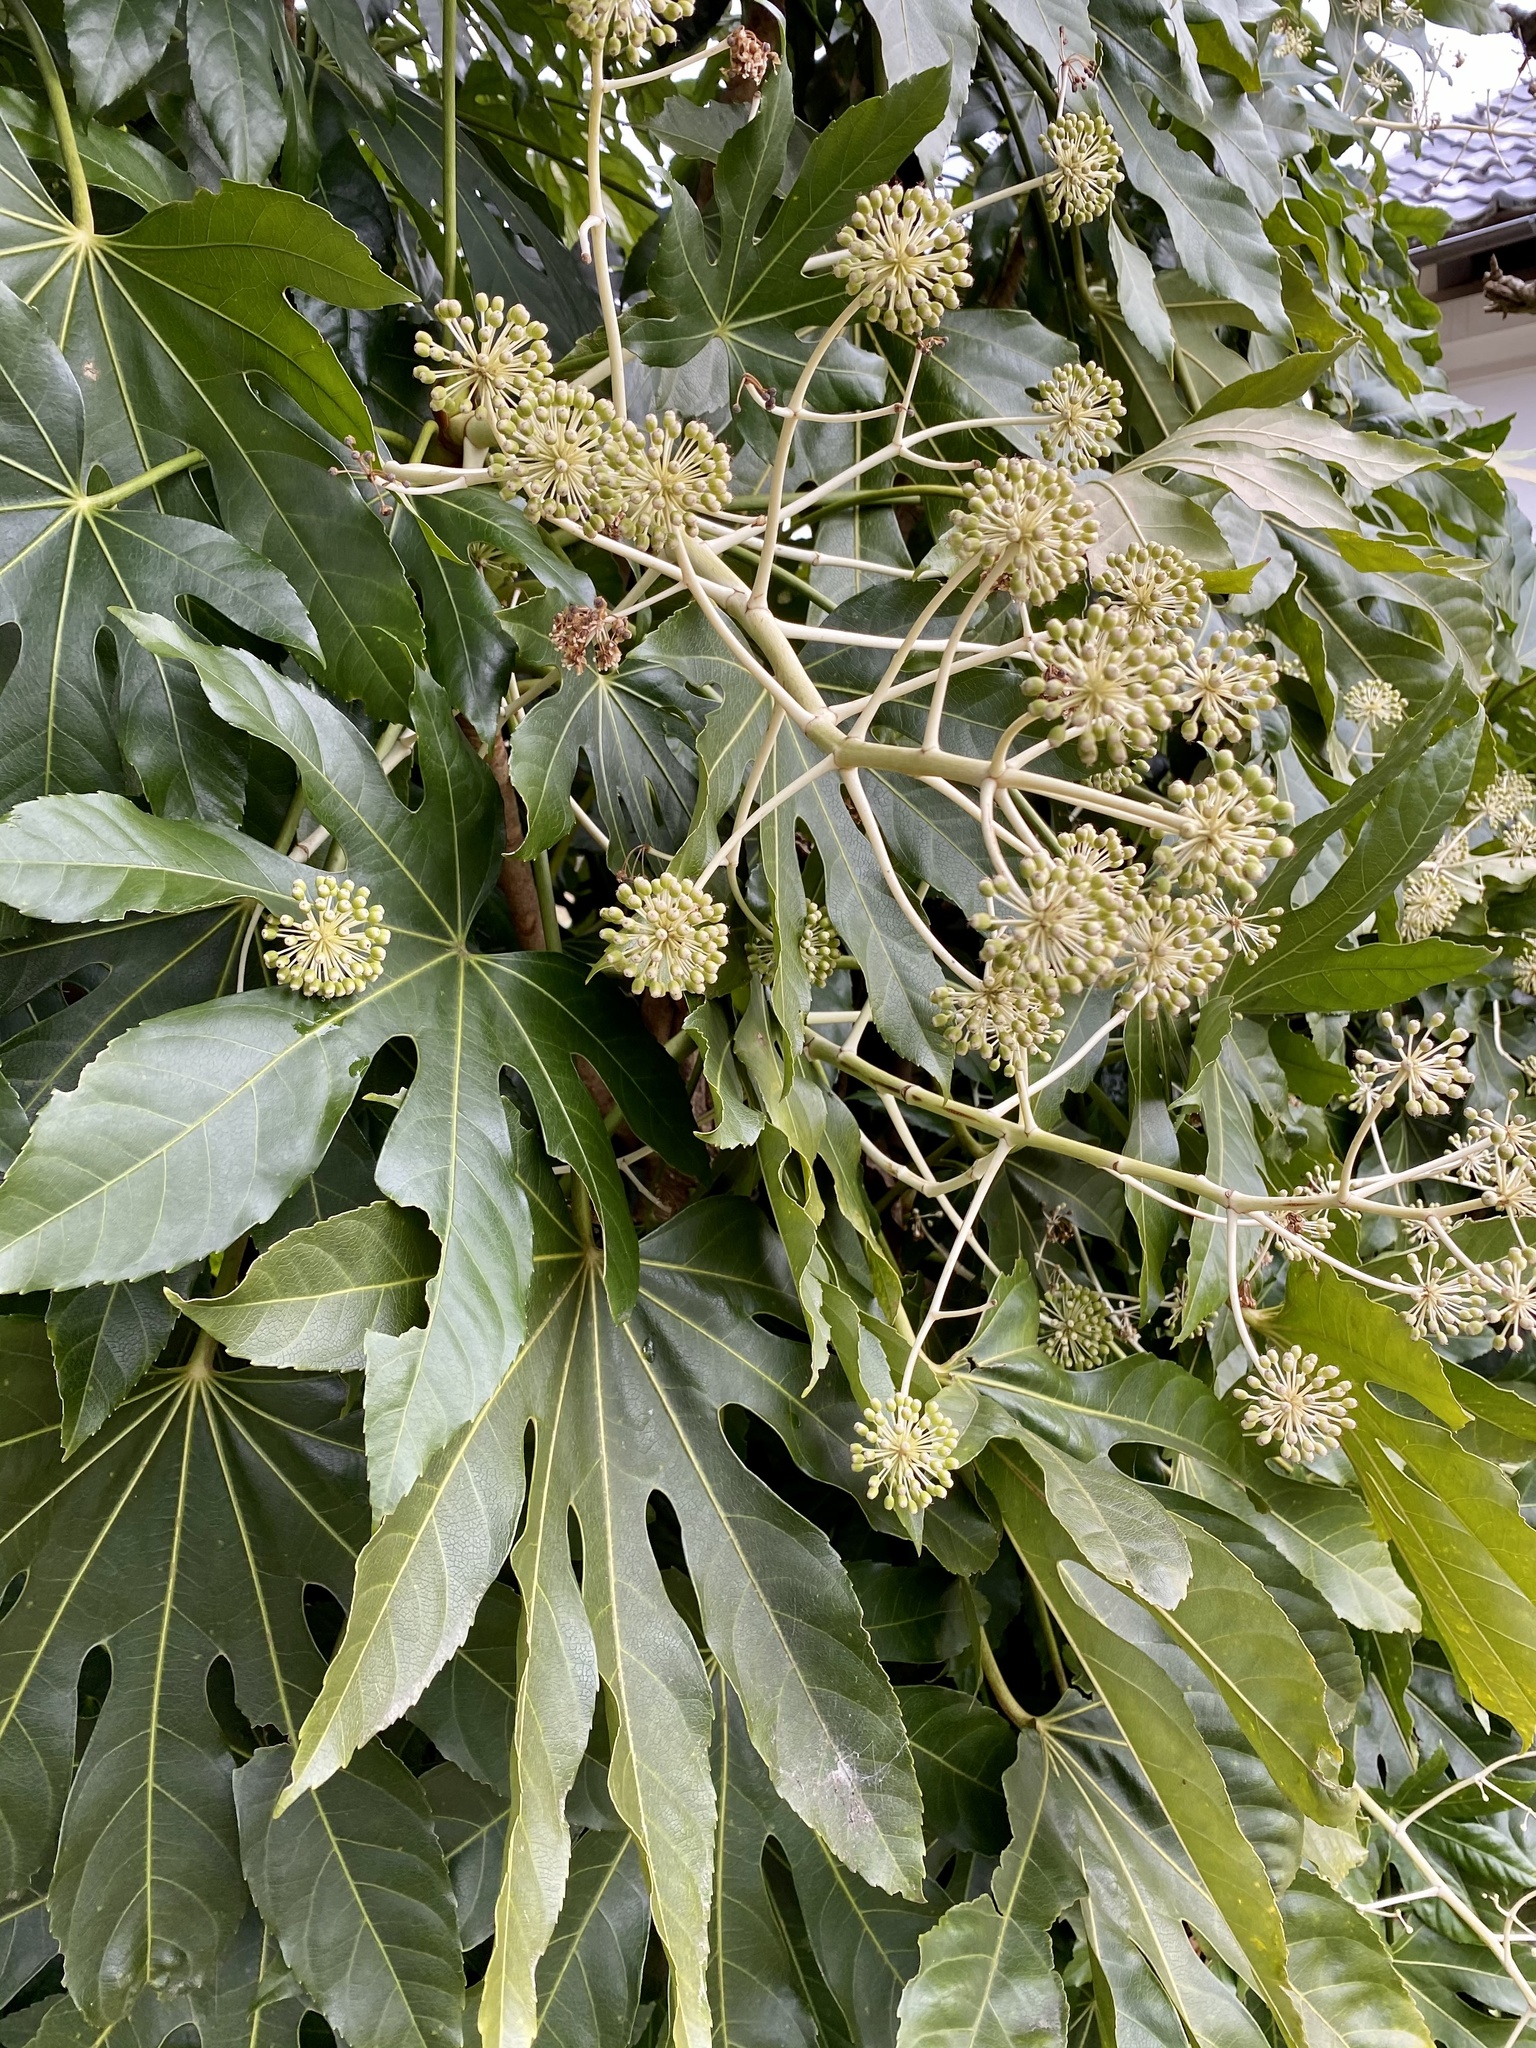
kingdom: Plantae
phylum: Tracheophyta
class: Magnoliopsida
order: Apiales
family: Araliaceae
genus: Fatsia
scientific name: Fatsia japonica
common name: Fatsia
